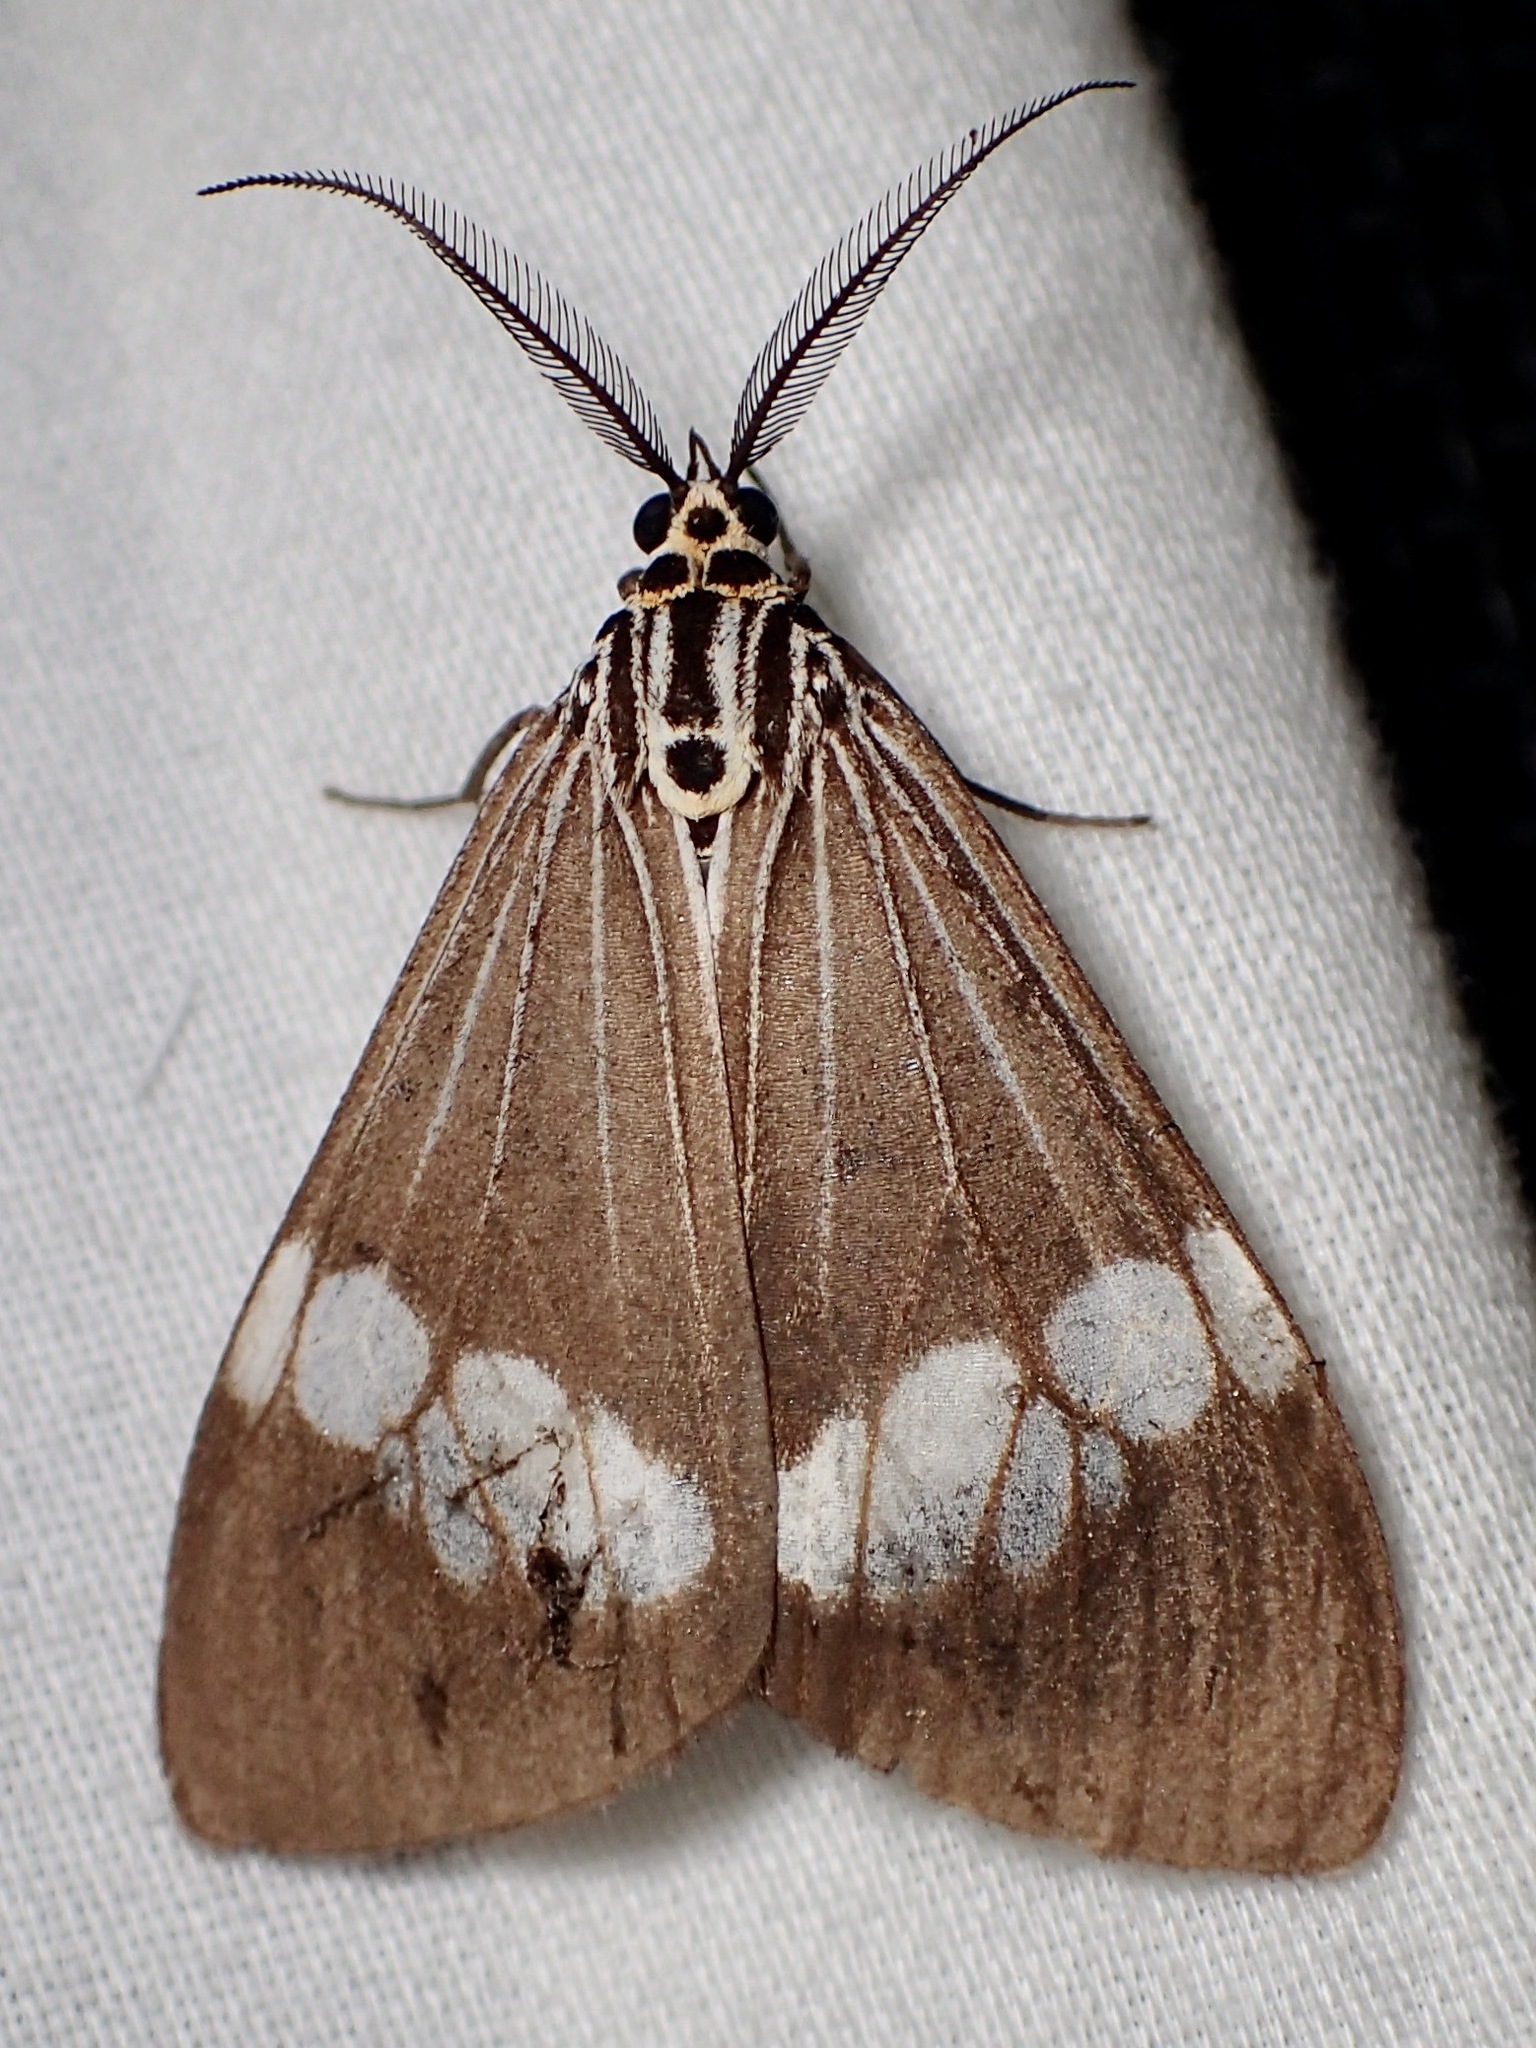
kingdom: Animalia
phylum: Arthropoda
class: Insecta
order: Lepidoptera
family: Erebidae
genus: Nyctemera
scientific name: Nyctemera baulus
